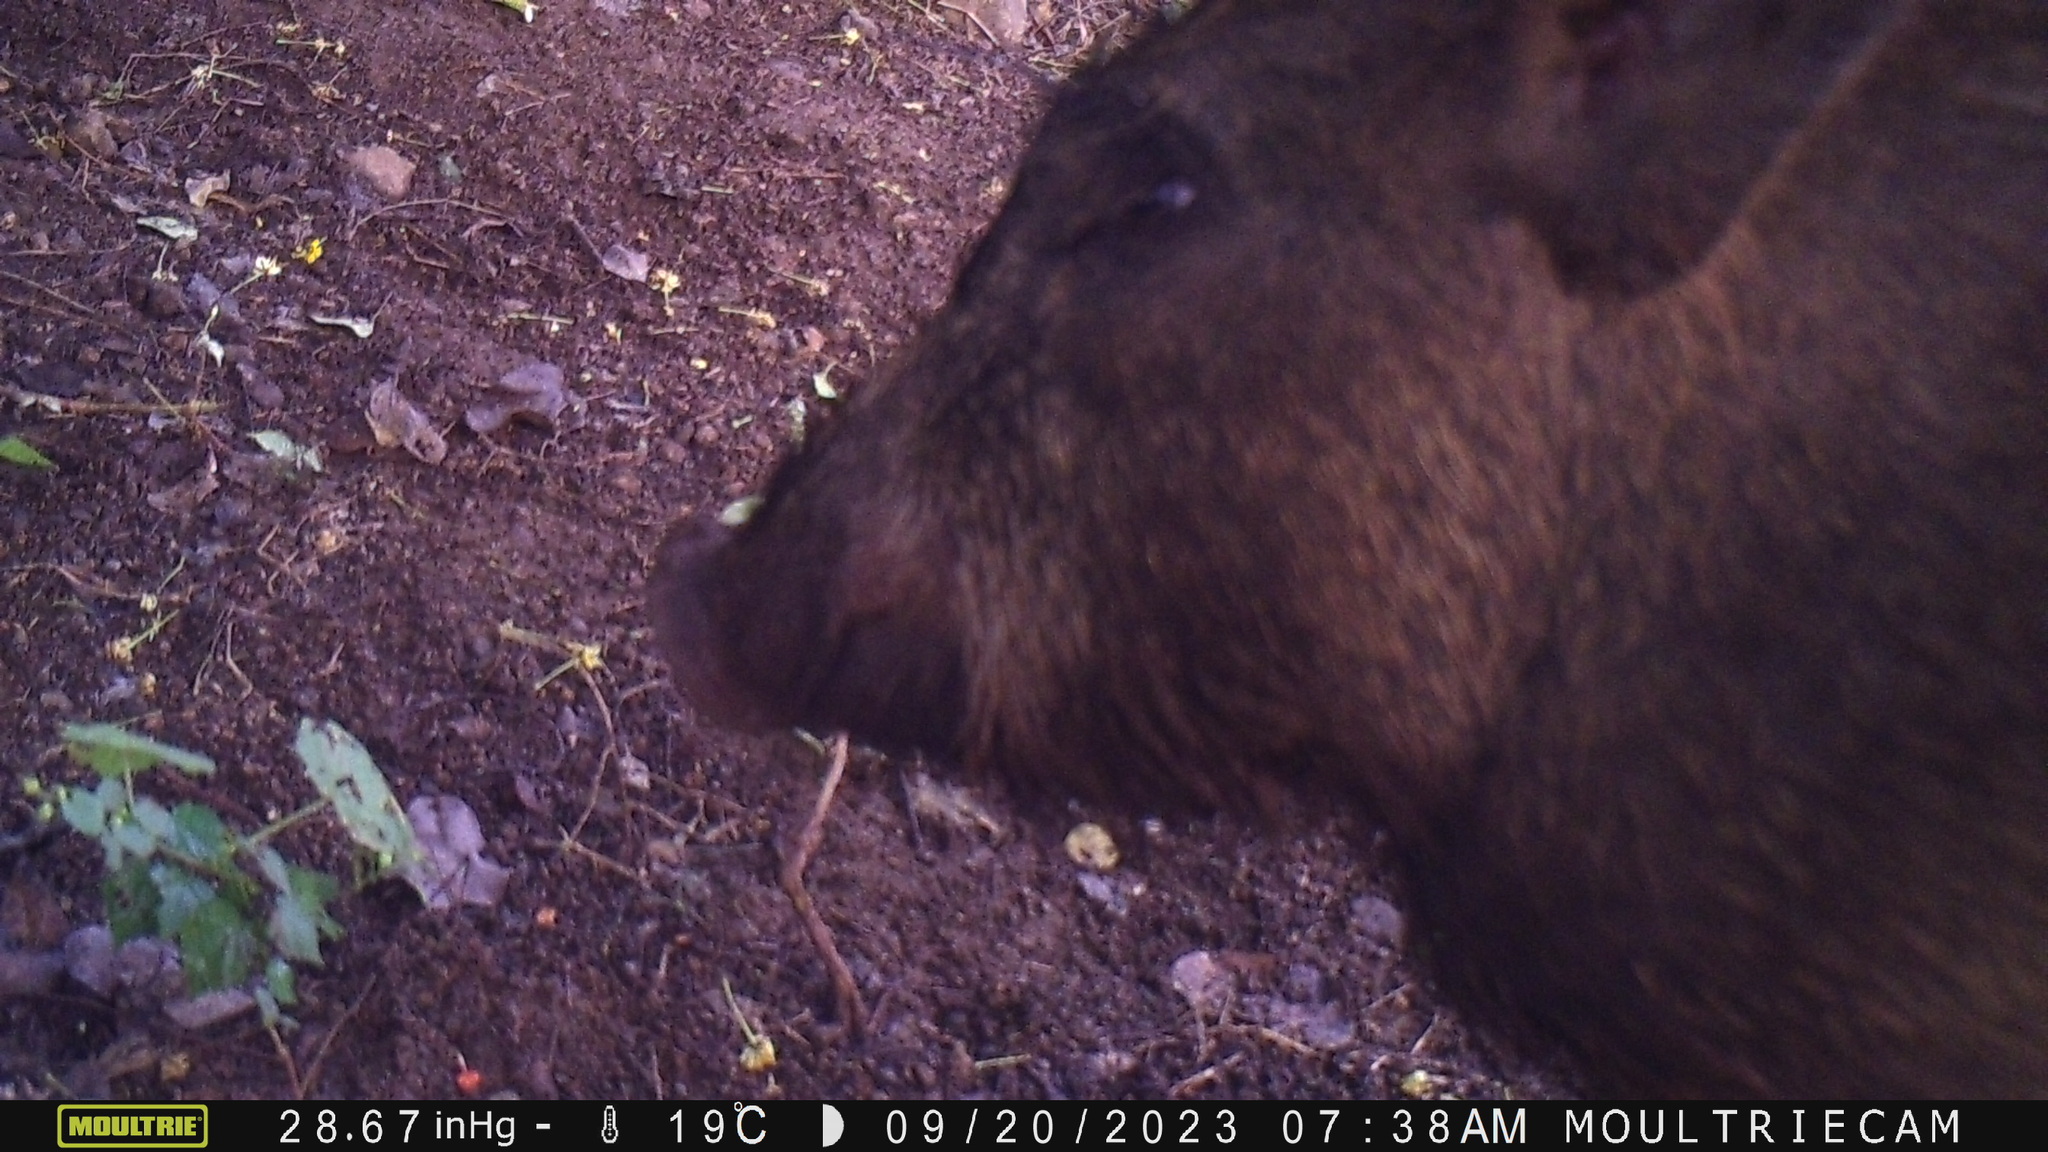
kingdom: Animalia
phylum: Chordata
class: Mammalia
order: Artiodactyla
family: Suidae
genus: Sus
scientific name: Sus scrofa
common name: Wild boar
